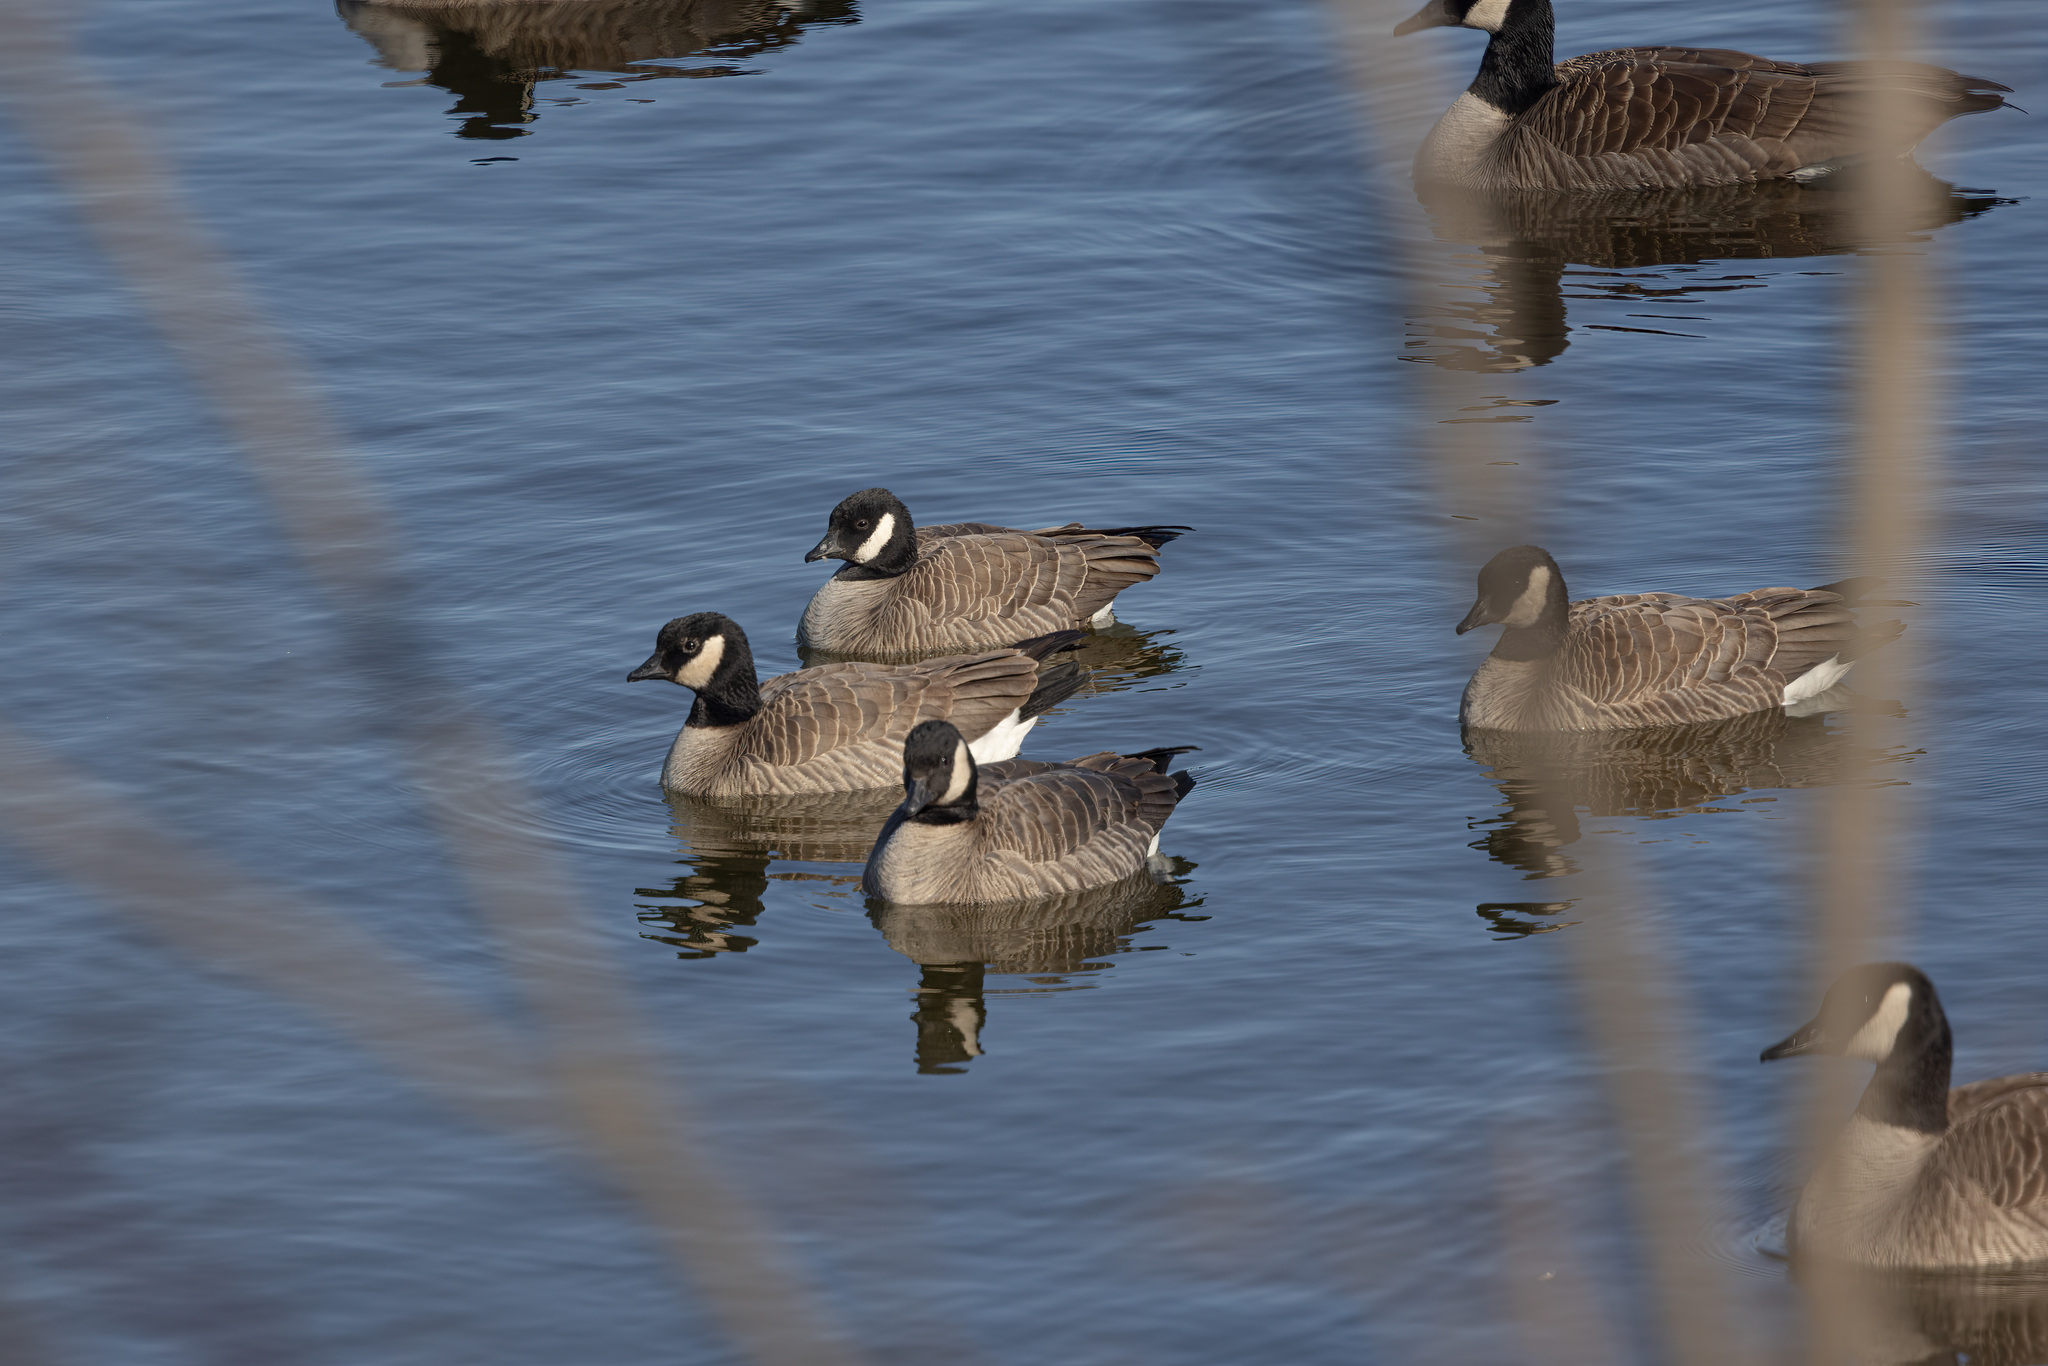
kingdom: Animalia
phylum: Chordata
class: Aves
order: Anseriformes
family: Anatidae
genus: Branta
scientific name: Branta hutchinsii
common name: Cackling goose
